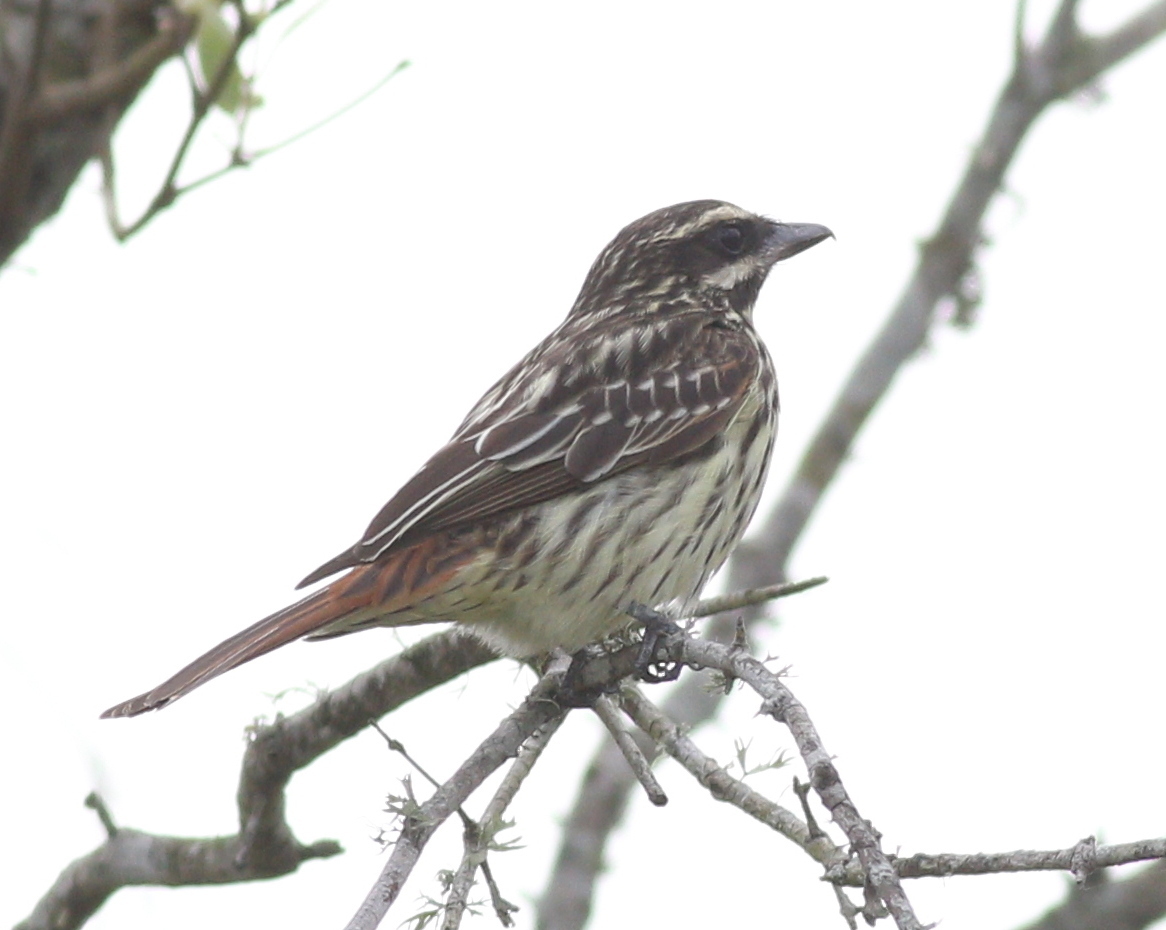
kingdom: Animalia
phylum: Chordata
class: Aves
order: Passeriformes
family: Tyrannidae
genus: Myiodynastes
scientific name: Myiodynastes maculatus
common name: Streaked flycatcher
